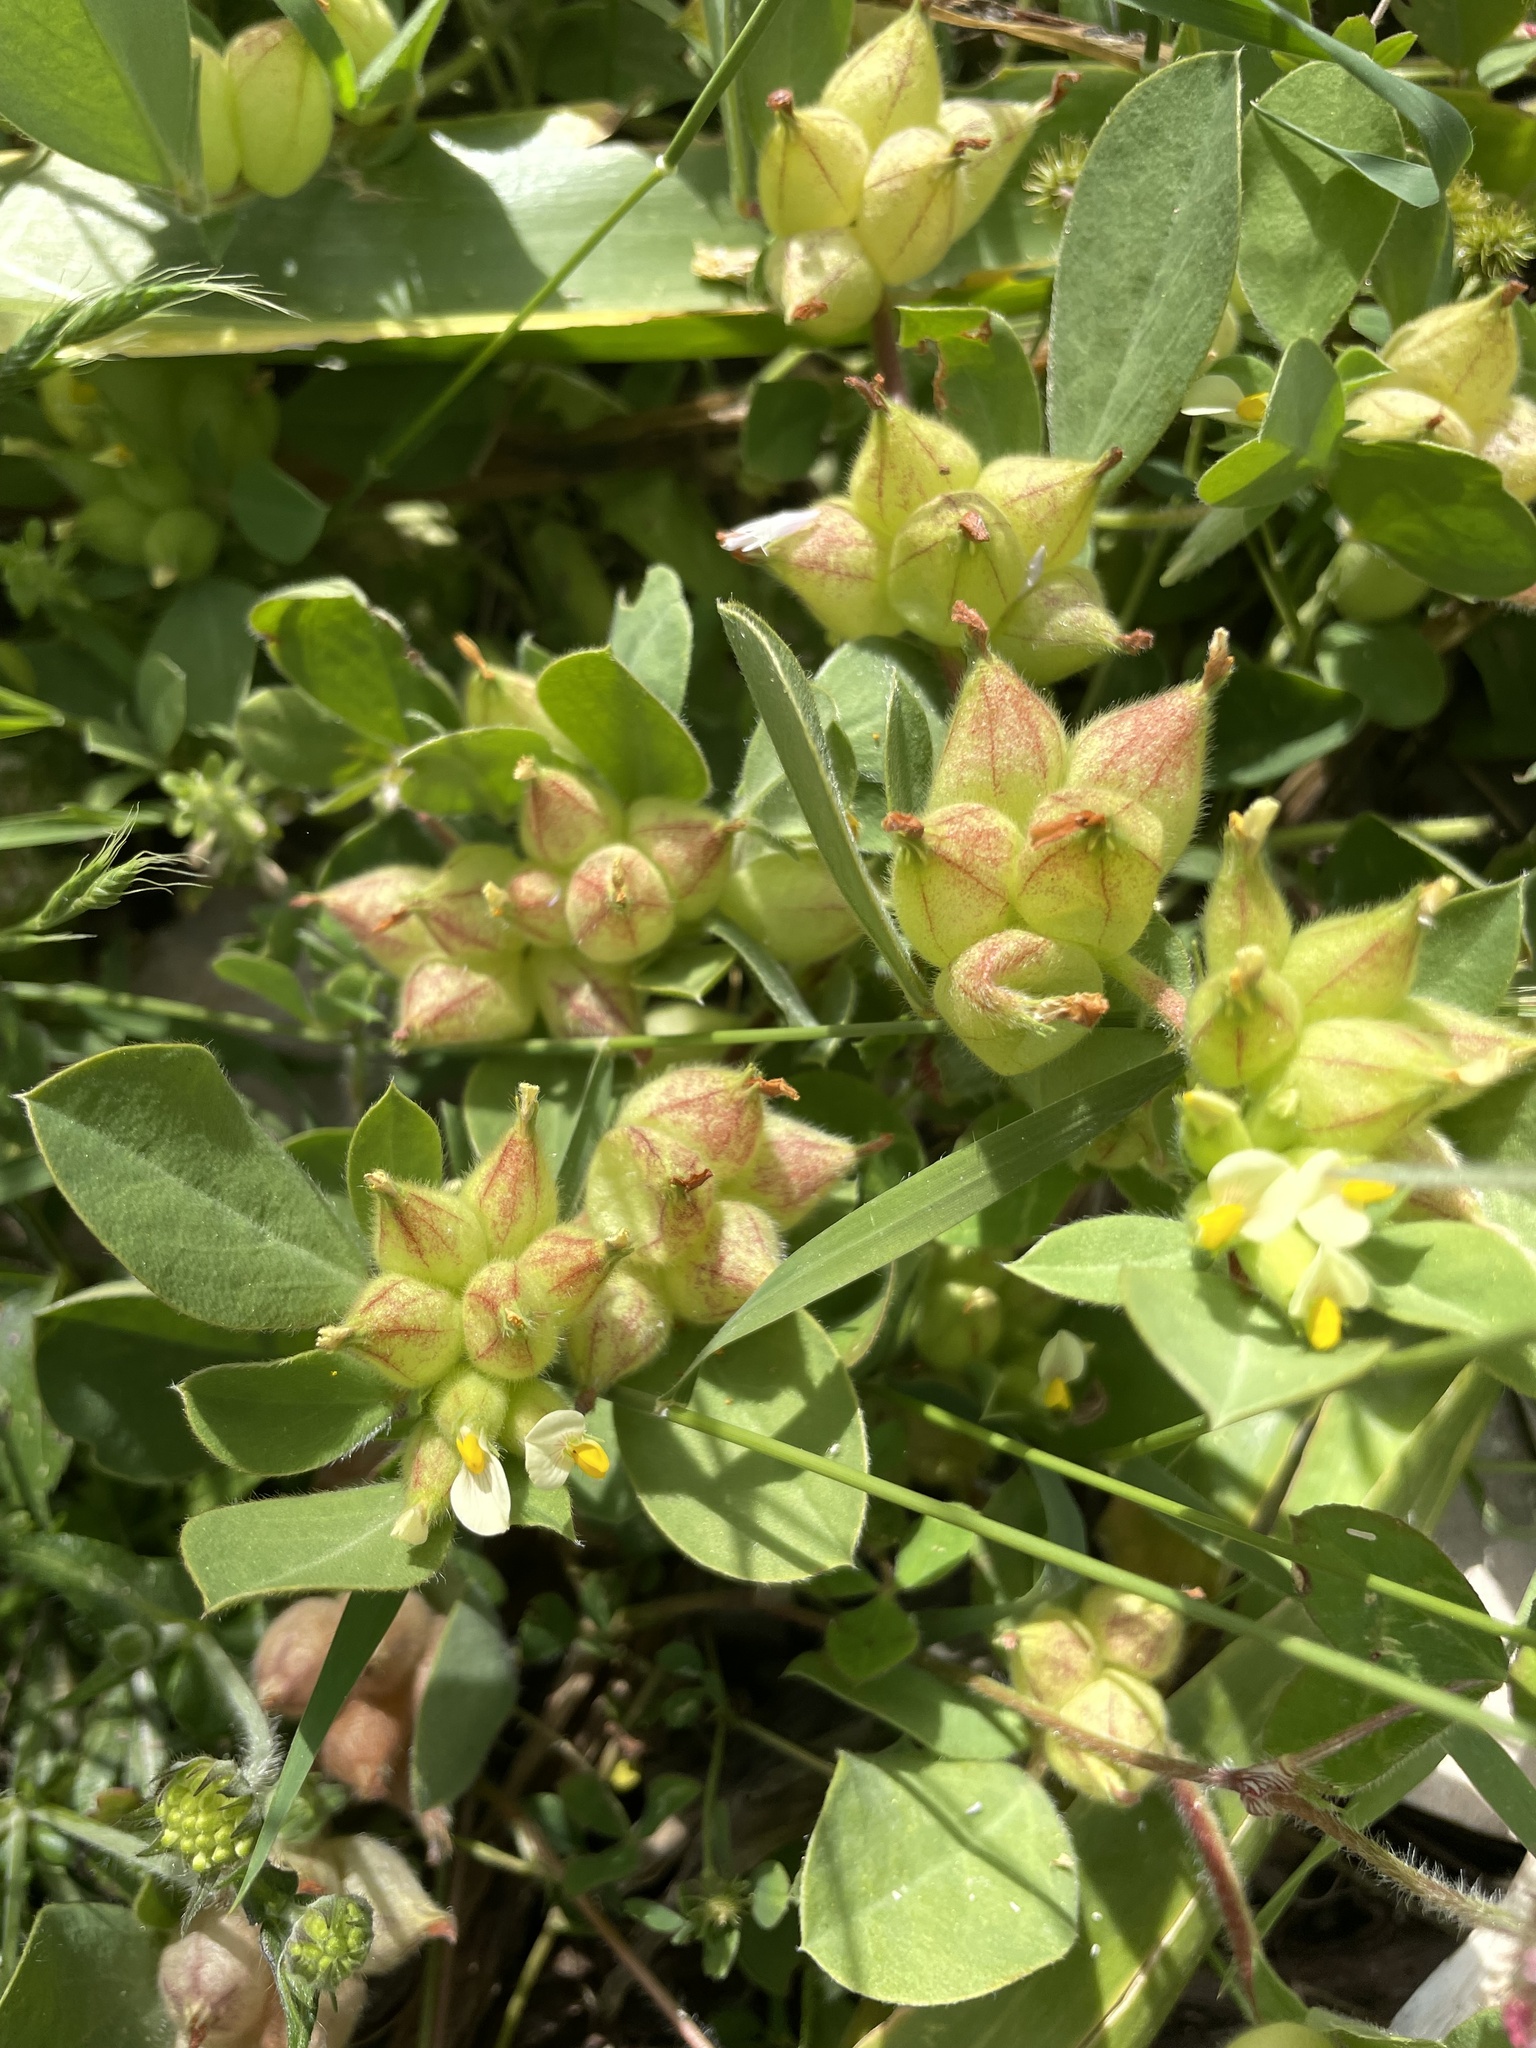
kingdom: Plantae
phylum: Tracheophyta
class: Magnoliopsida
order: Fabales
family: Fabaceae
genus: Tripodion
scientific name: Tripodion tetraphyllum
